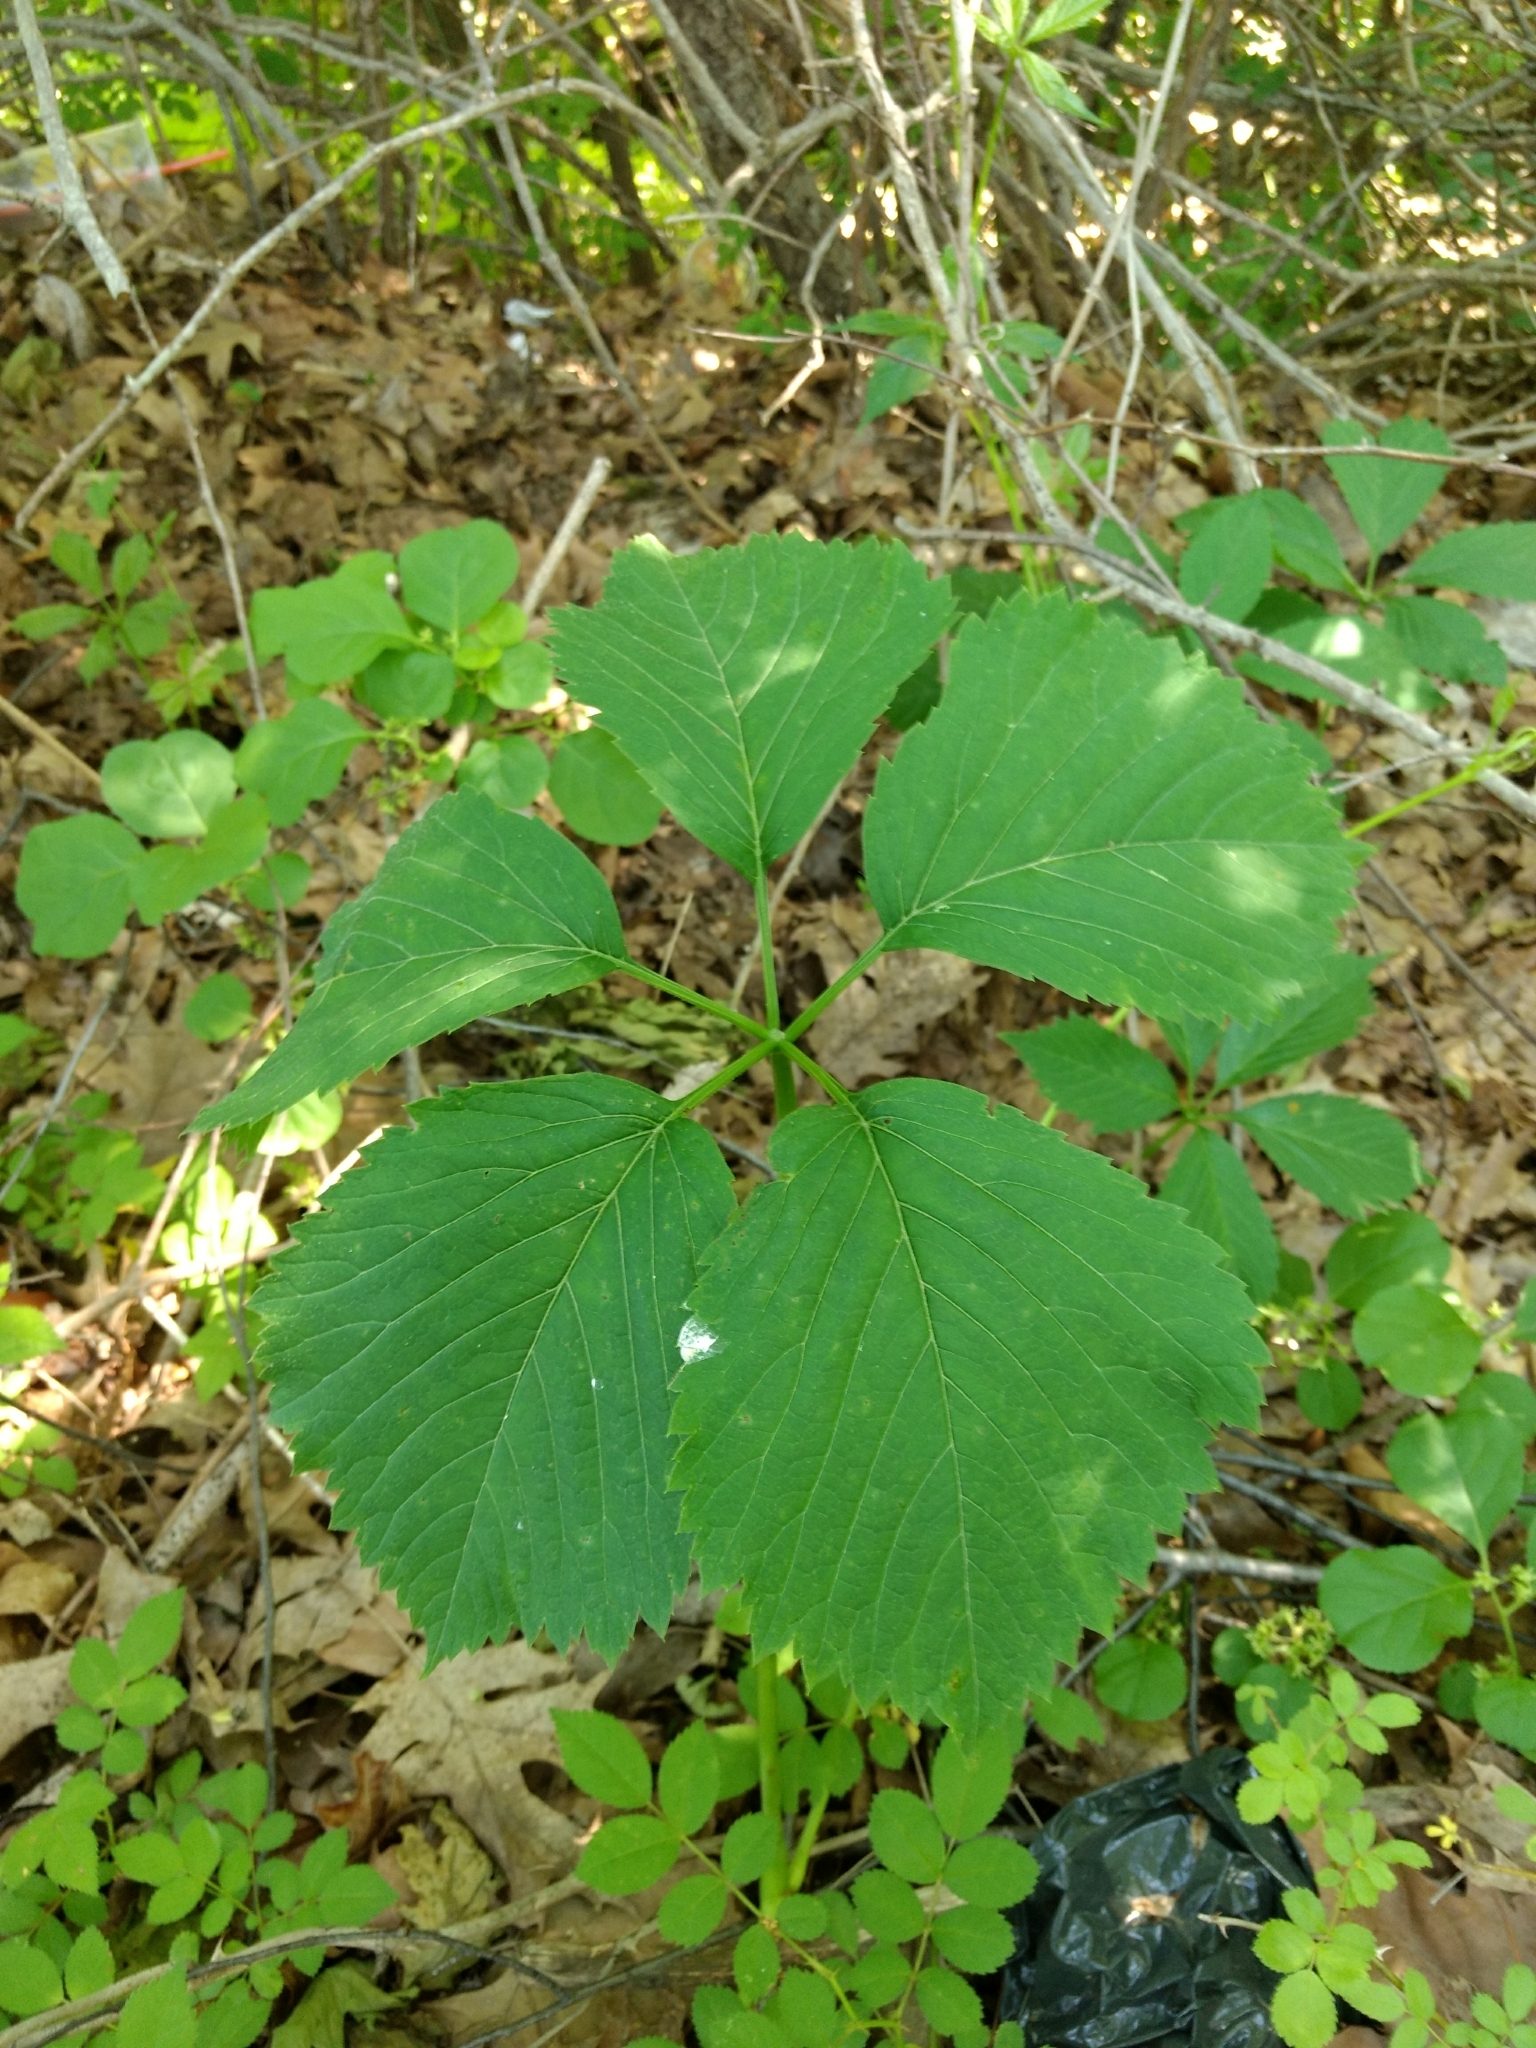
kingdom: Plantae
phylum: Tracheophyta
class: Magnoliopsida
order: Vitales
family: Vitaceae
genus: Parthenocissus
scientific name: Parthenocissus inserta
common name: False virginia-creeper
